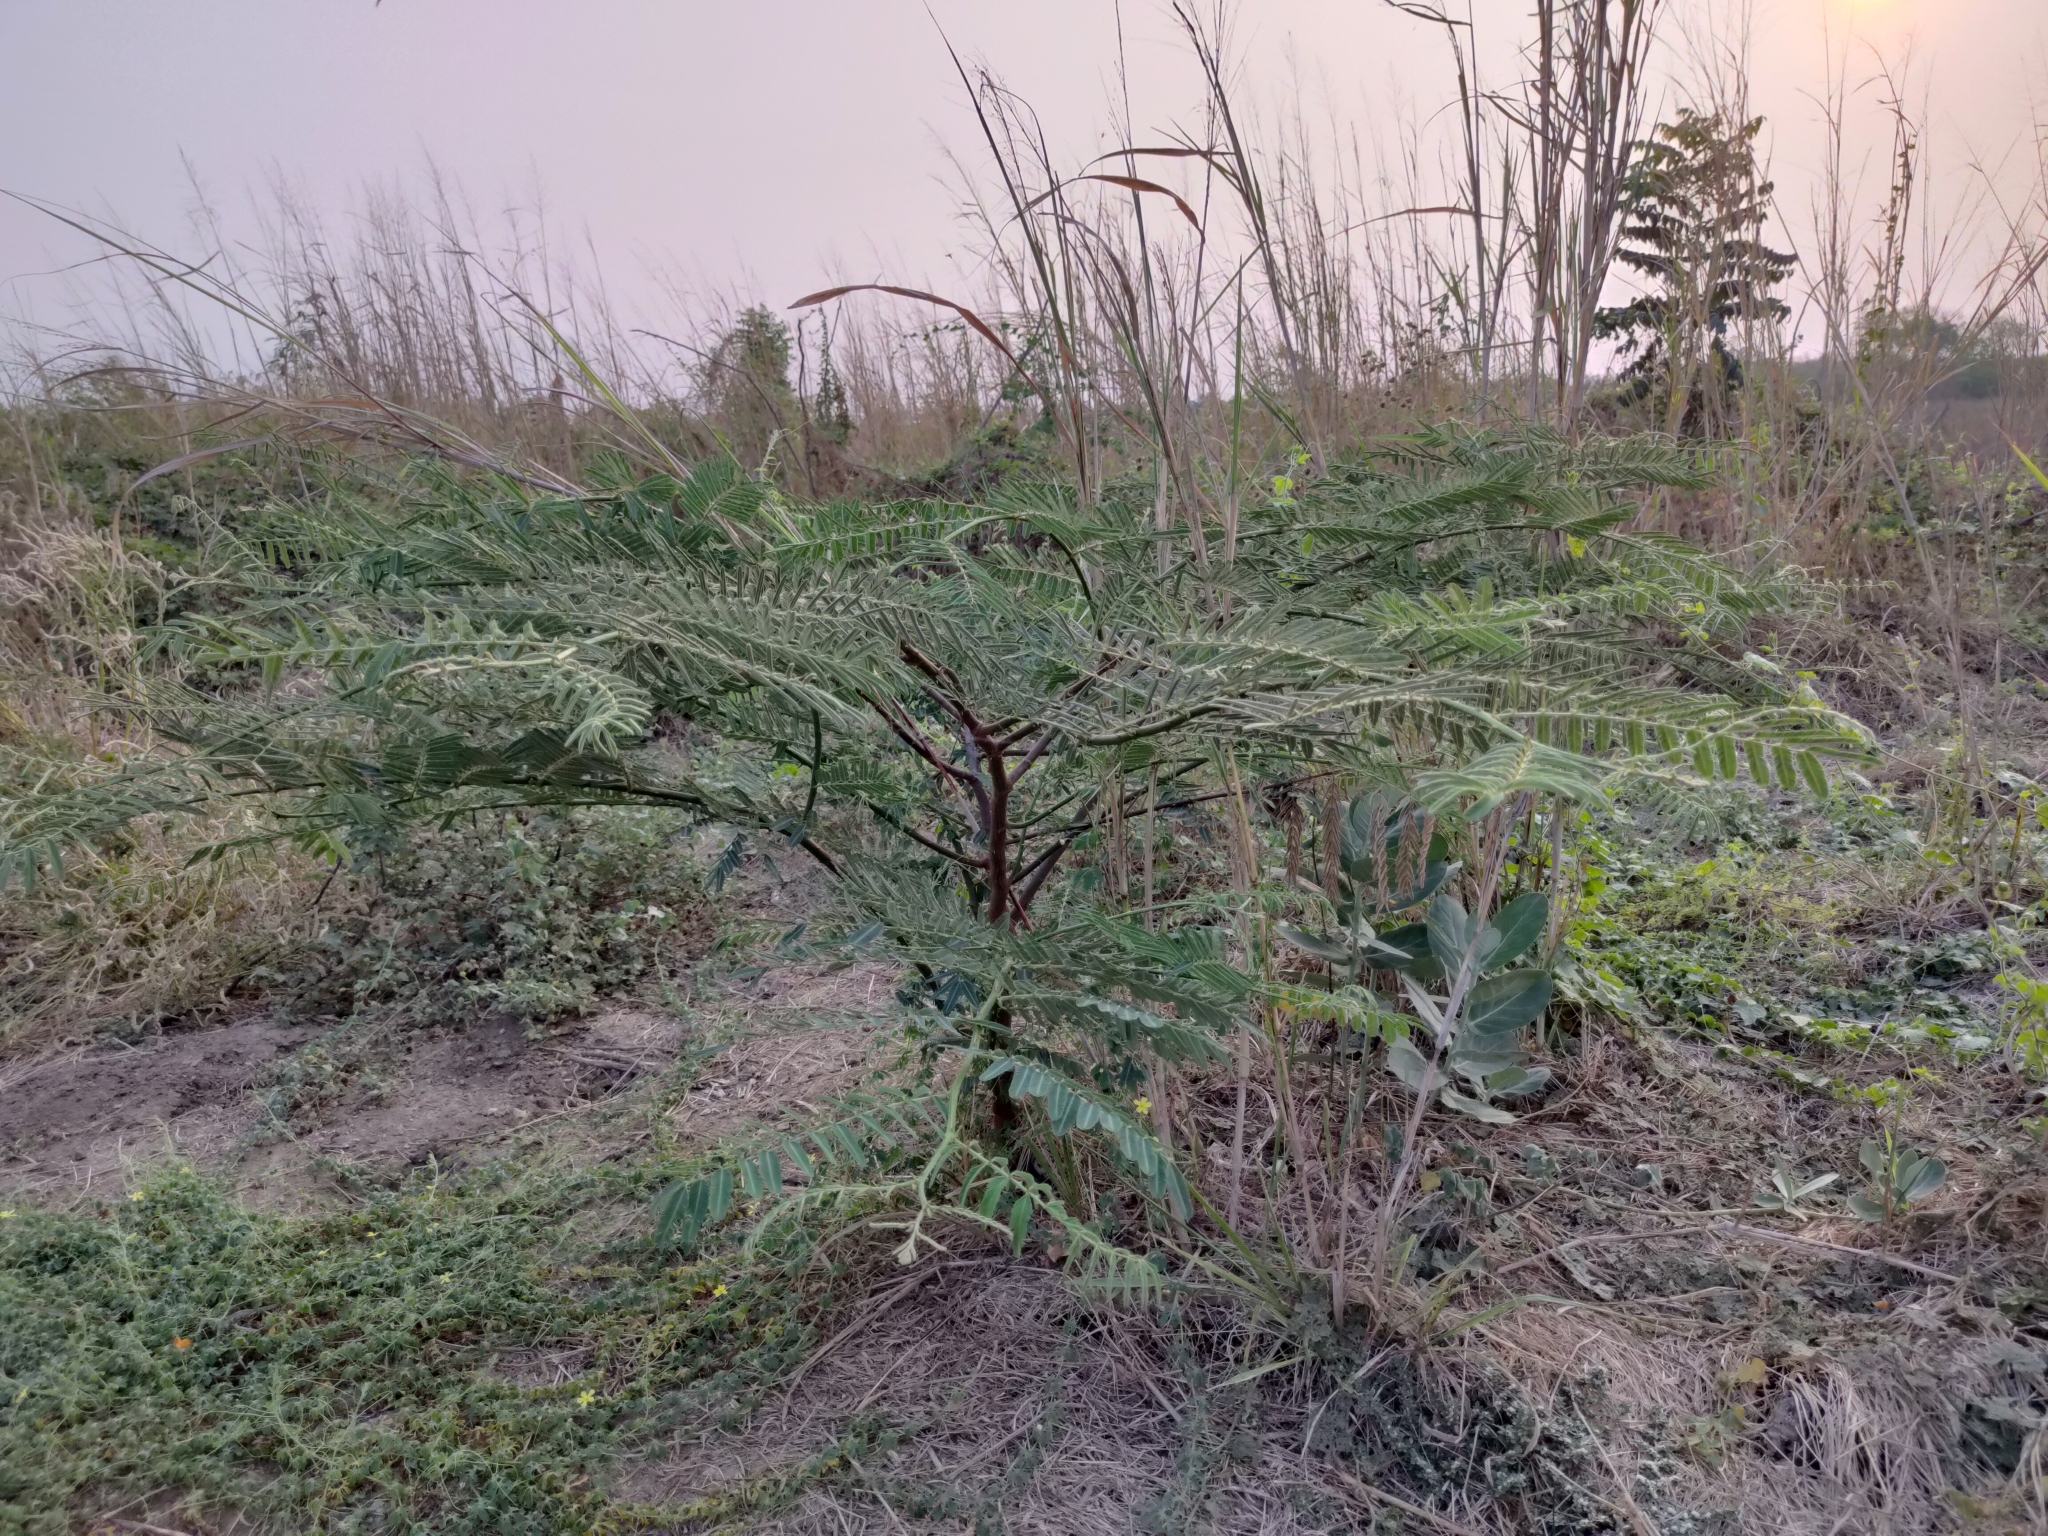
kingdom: Plantae
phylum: Tracheophyta
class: Magnoliopsida
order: Fabales
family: Fabaceae
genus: Mimosa
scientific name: Mimosa pigra
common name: Black mimosa
